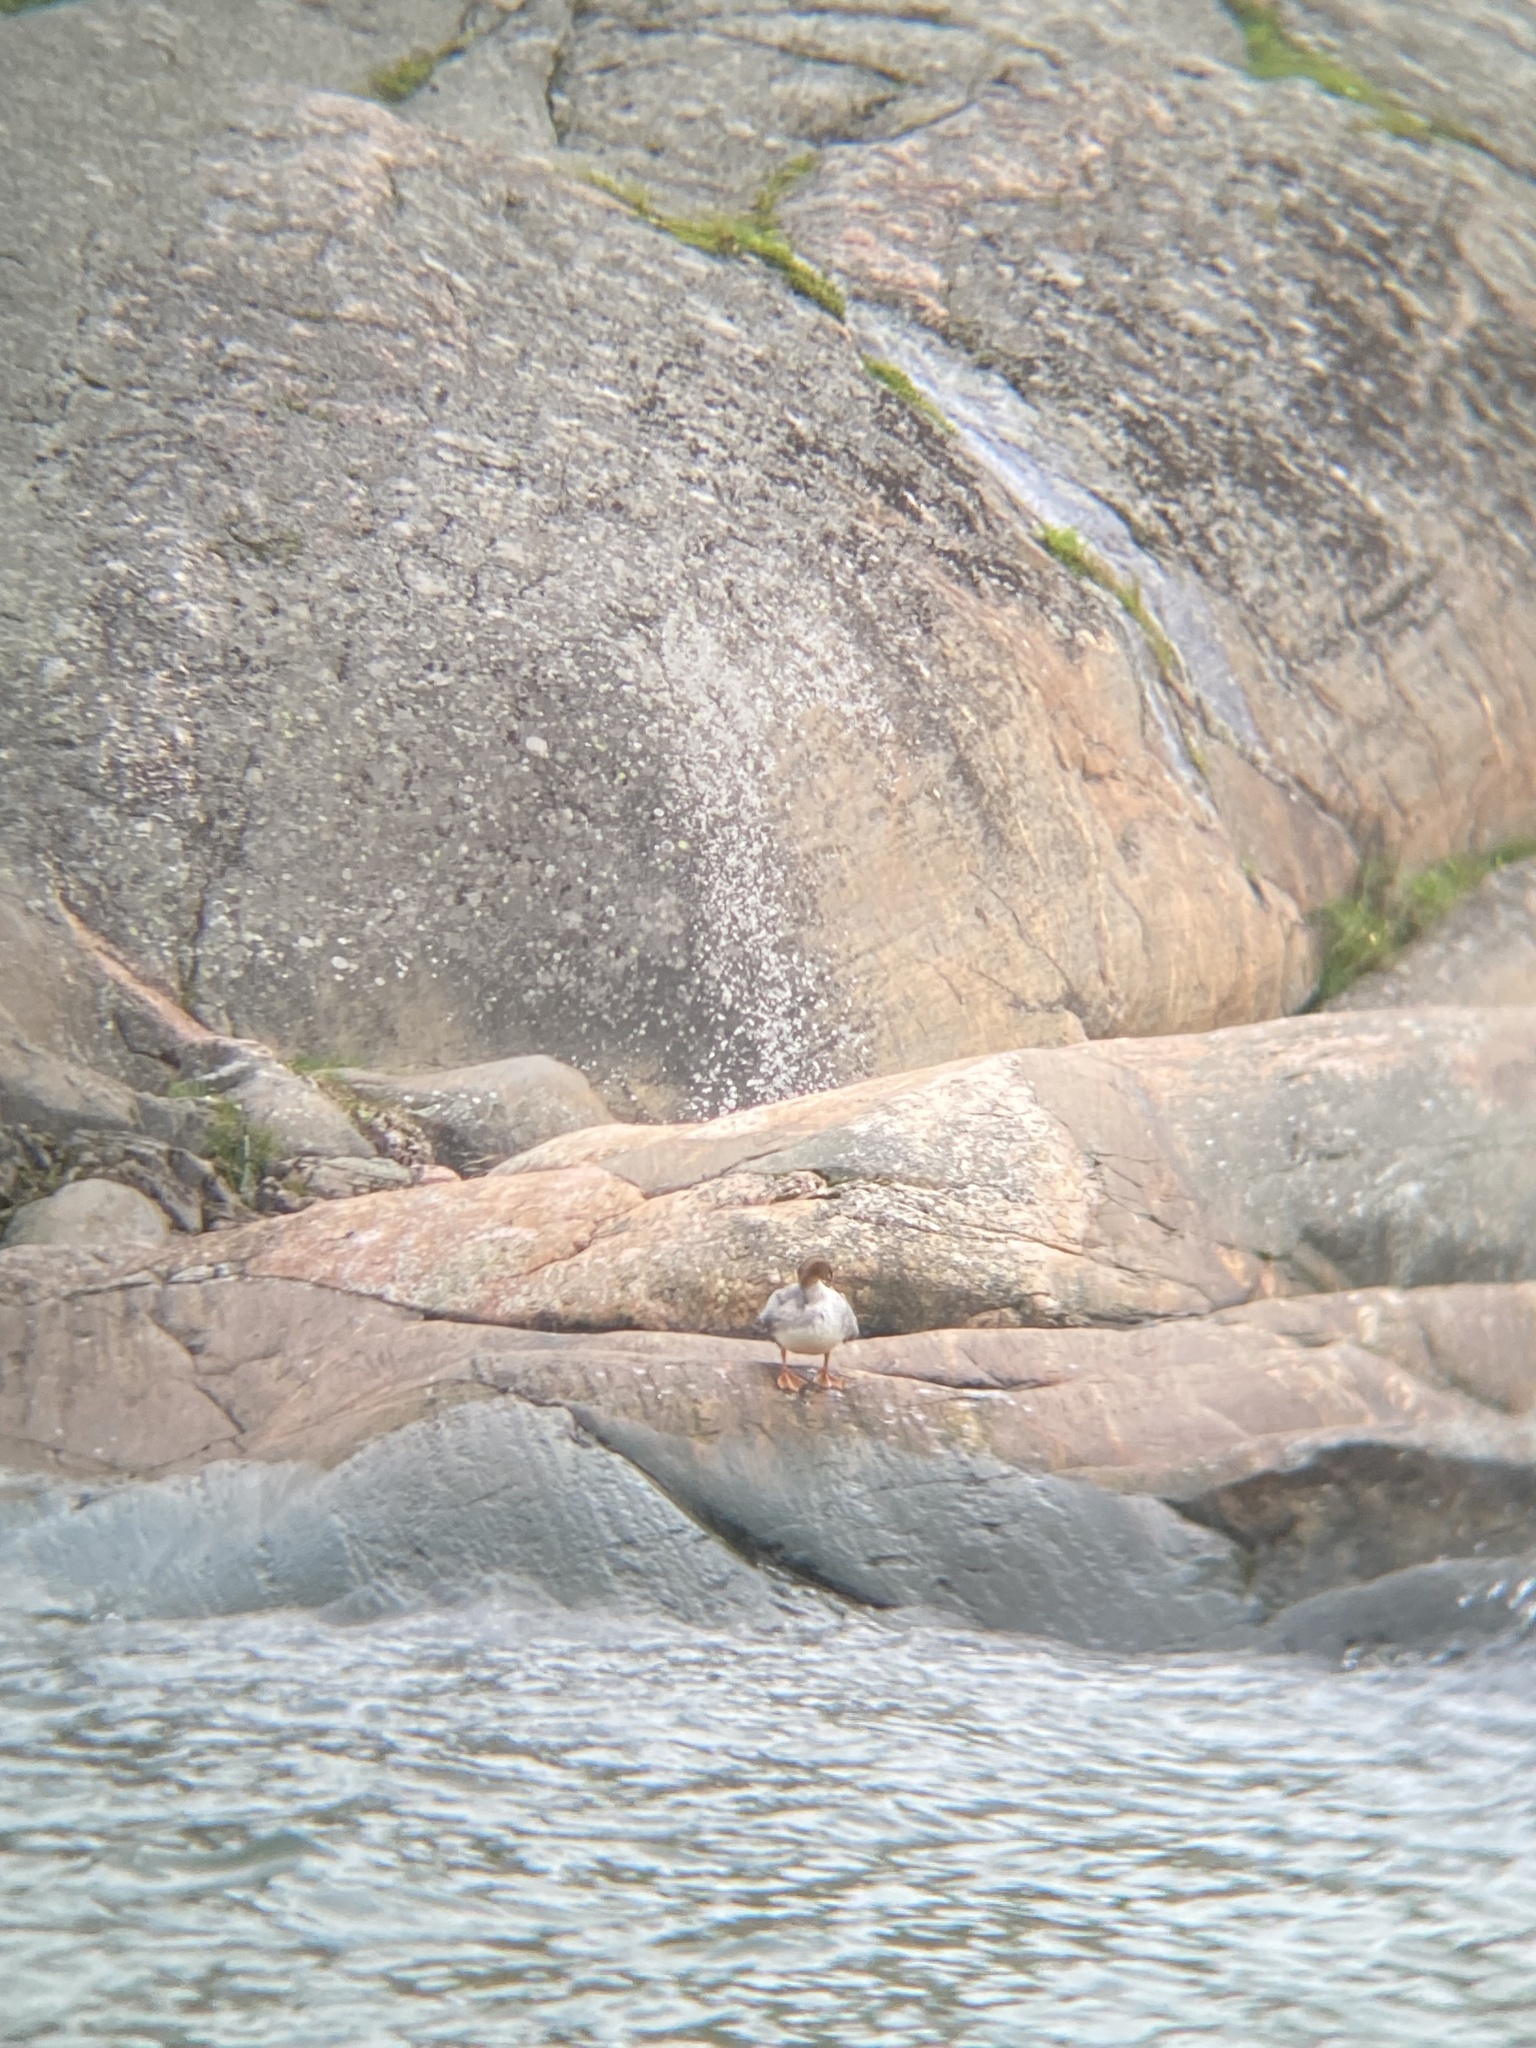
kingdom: Animalia
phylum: Chordata
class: Aves
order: Anseriformes
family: Anatidae
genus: Mergus
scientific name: Mergus merganser
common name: Common merganser
